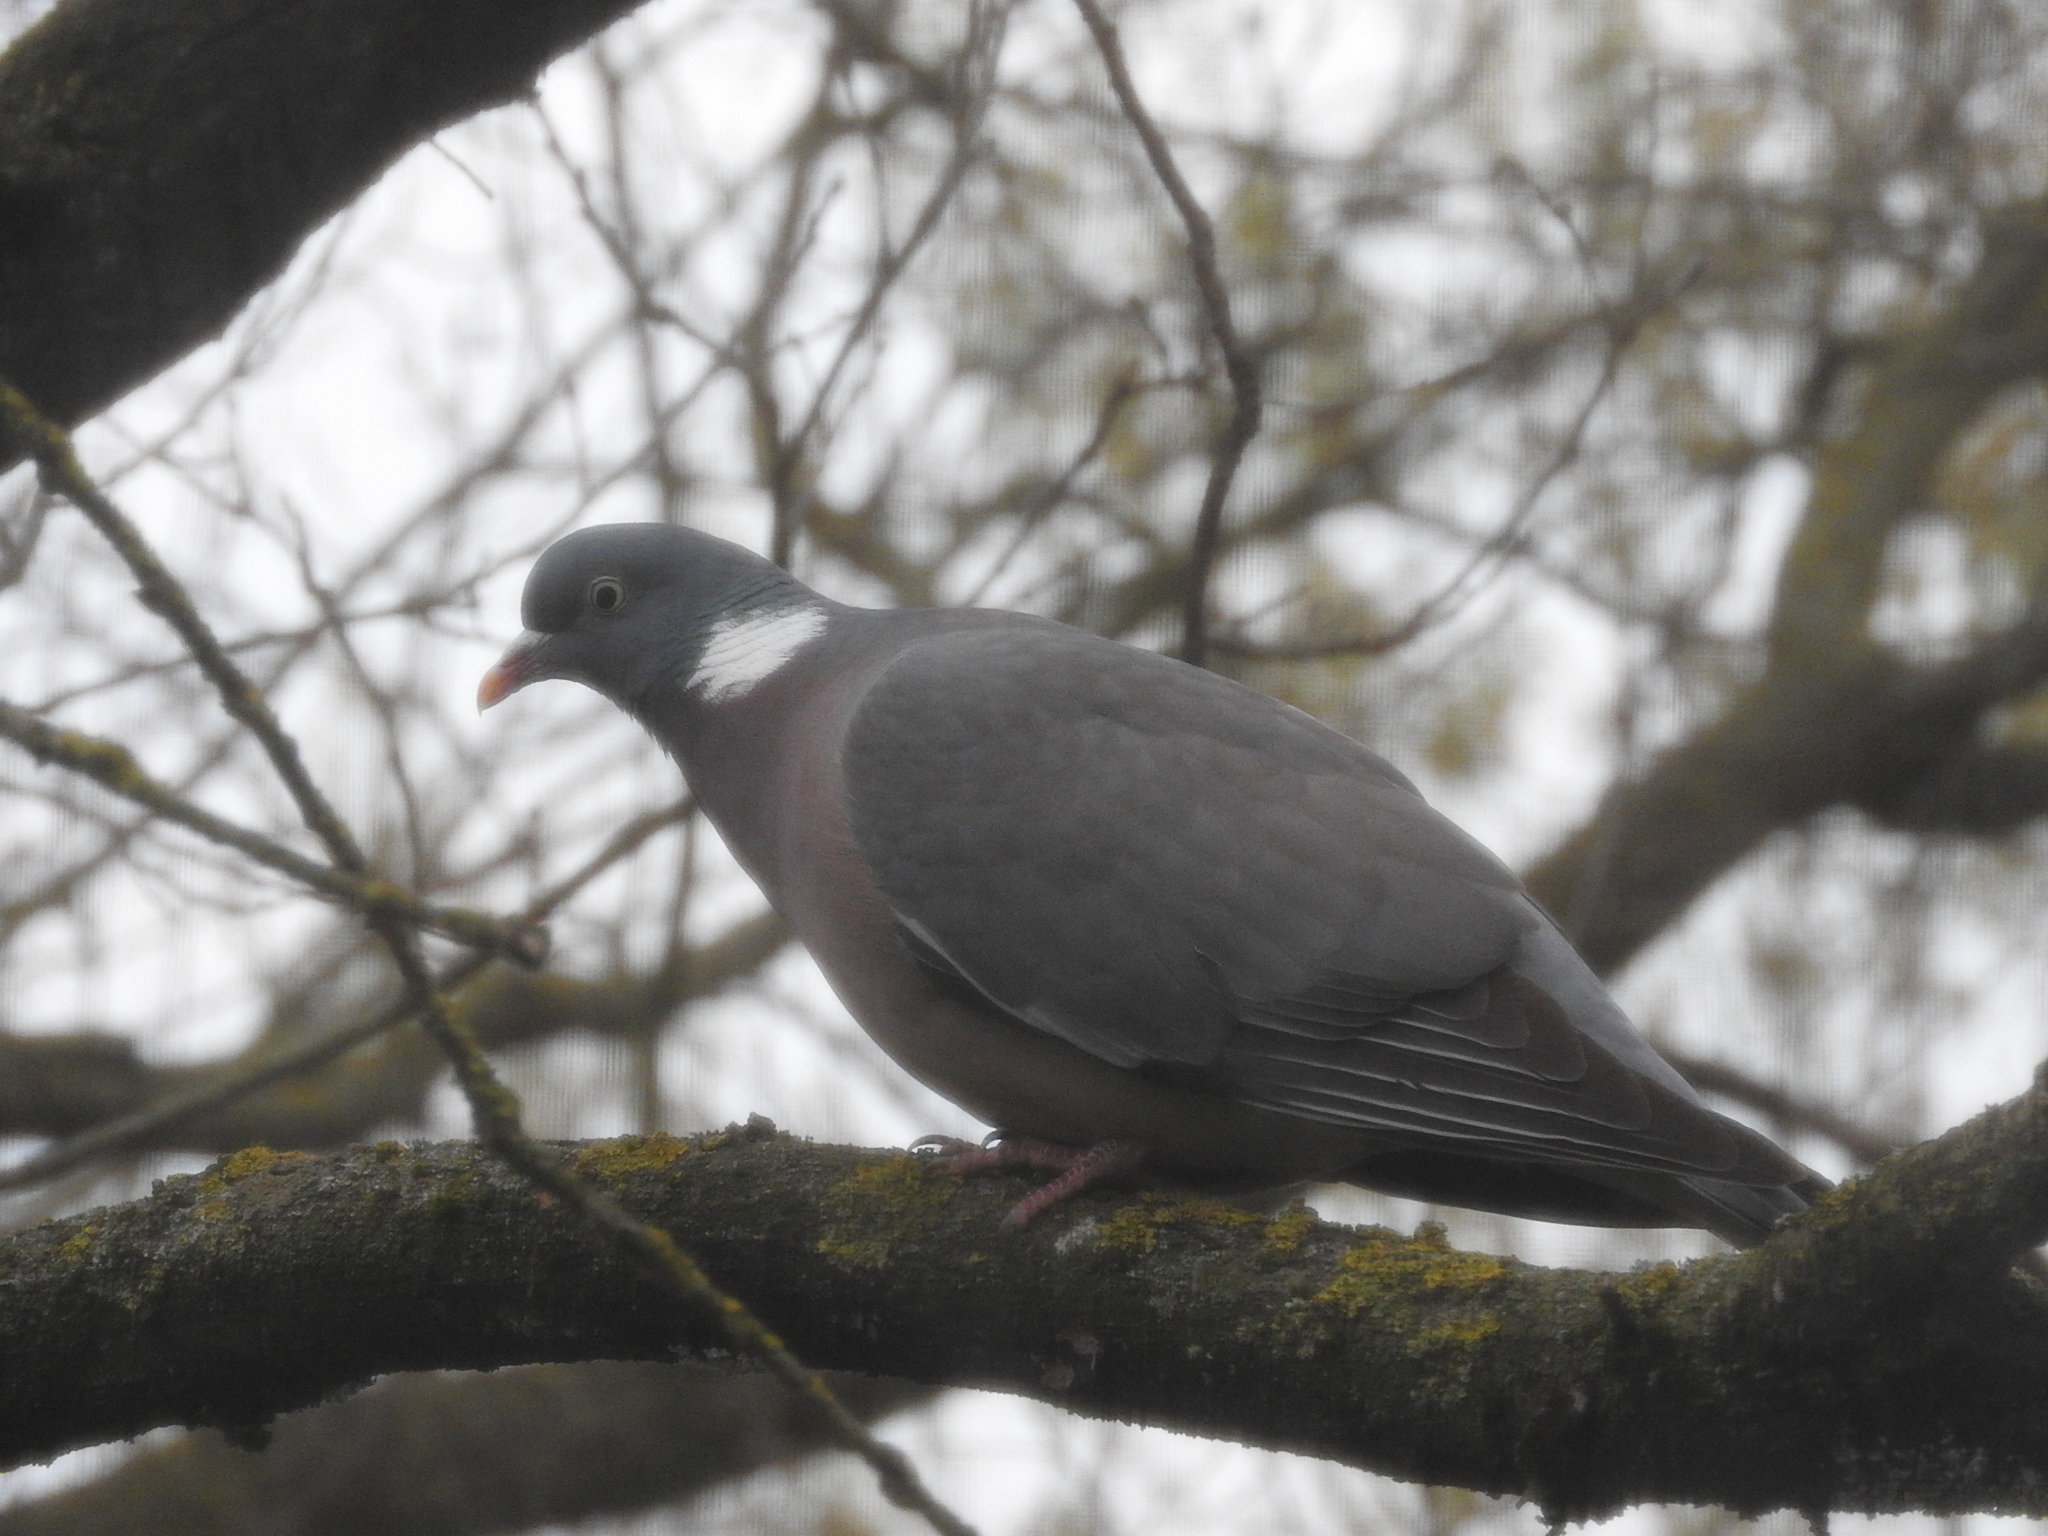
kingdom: Animalia
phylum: Chordata
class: Aves
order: Columbiformes
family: Columbidae
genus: Columba
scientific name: Columba palumbus
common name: Common wood pigeon
